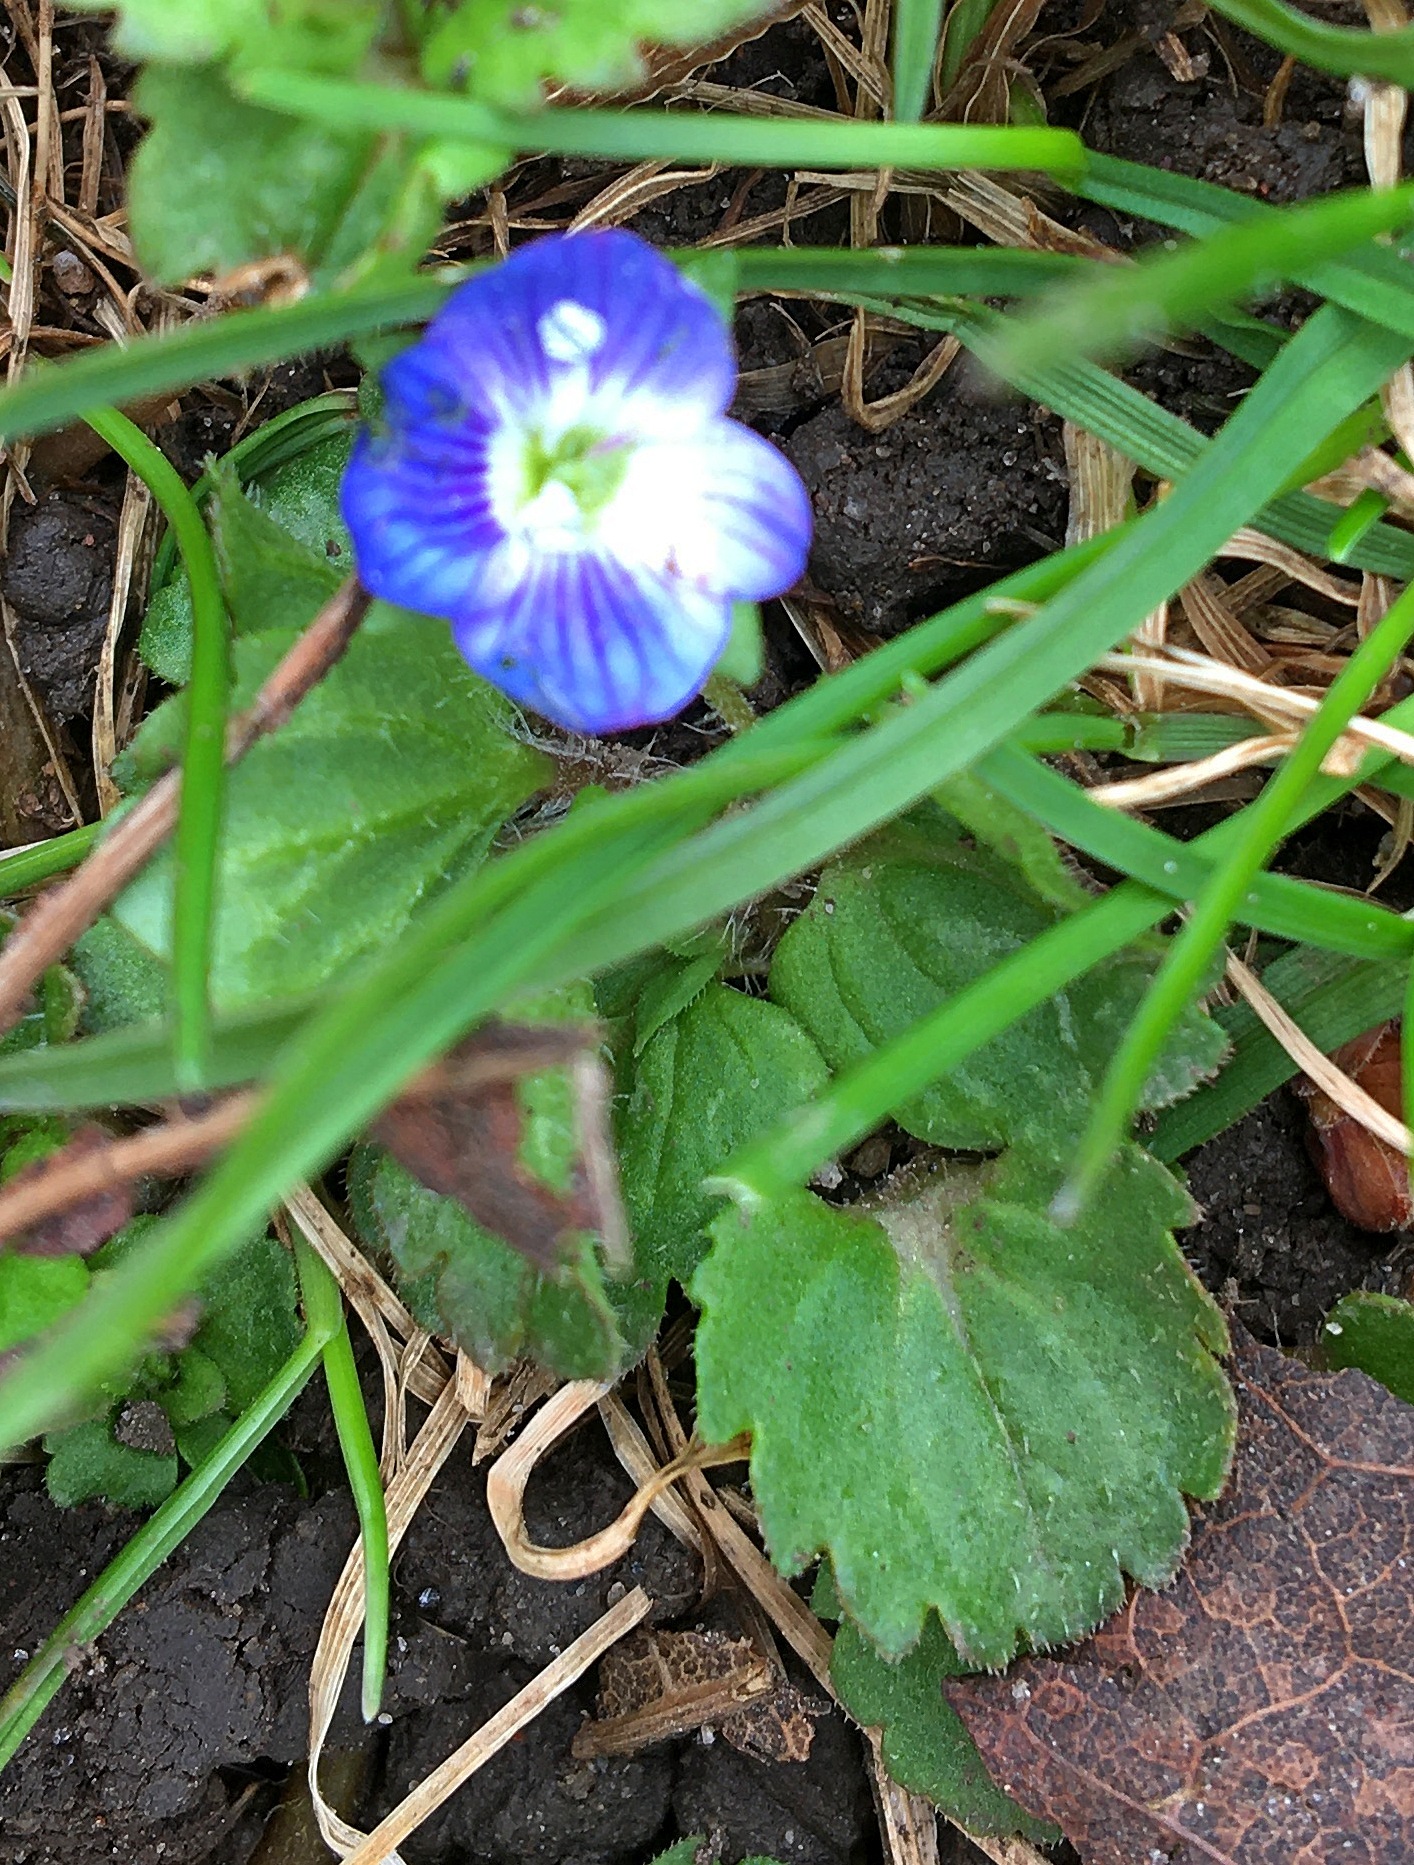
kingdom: Plantae
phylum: Tracheophyta
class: Magnoliopsida
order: Lamiales
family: Plantaginaceae
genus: Veronica
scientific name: Veronica persica
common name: Common field-speedwell
